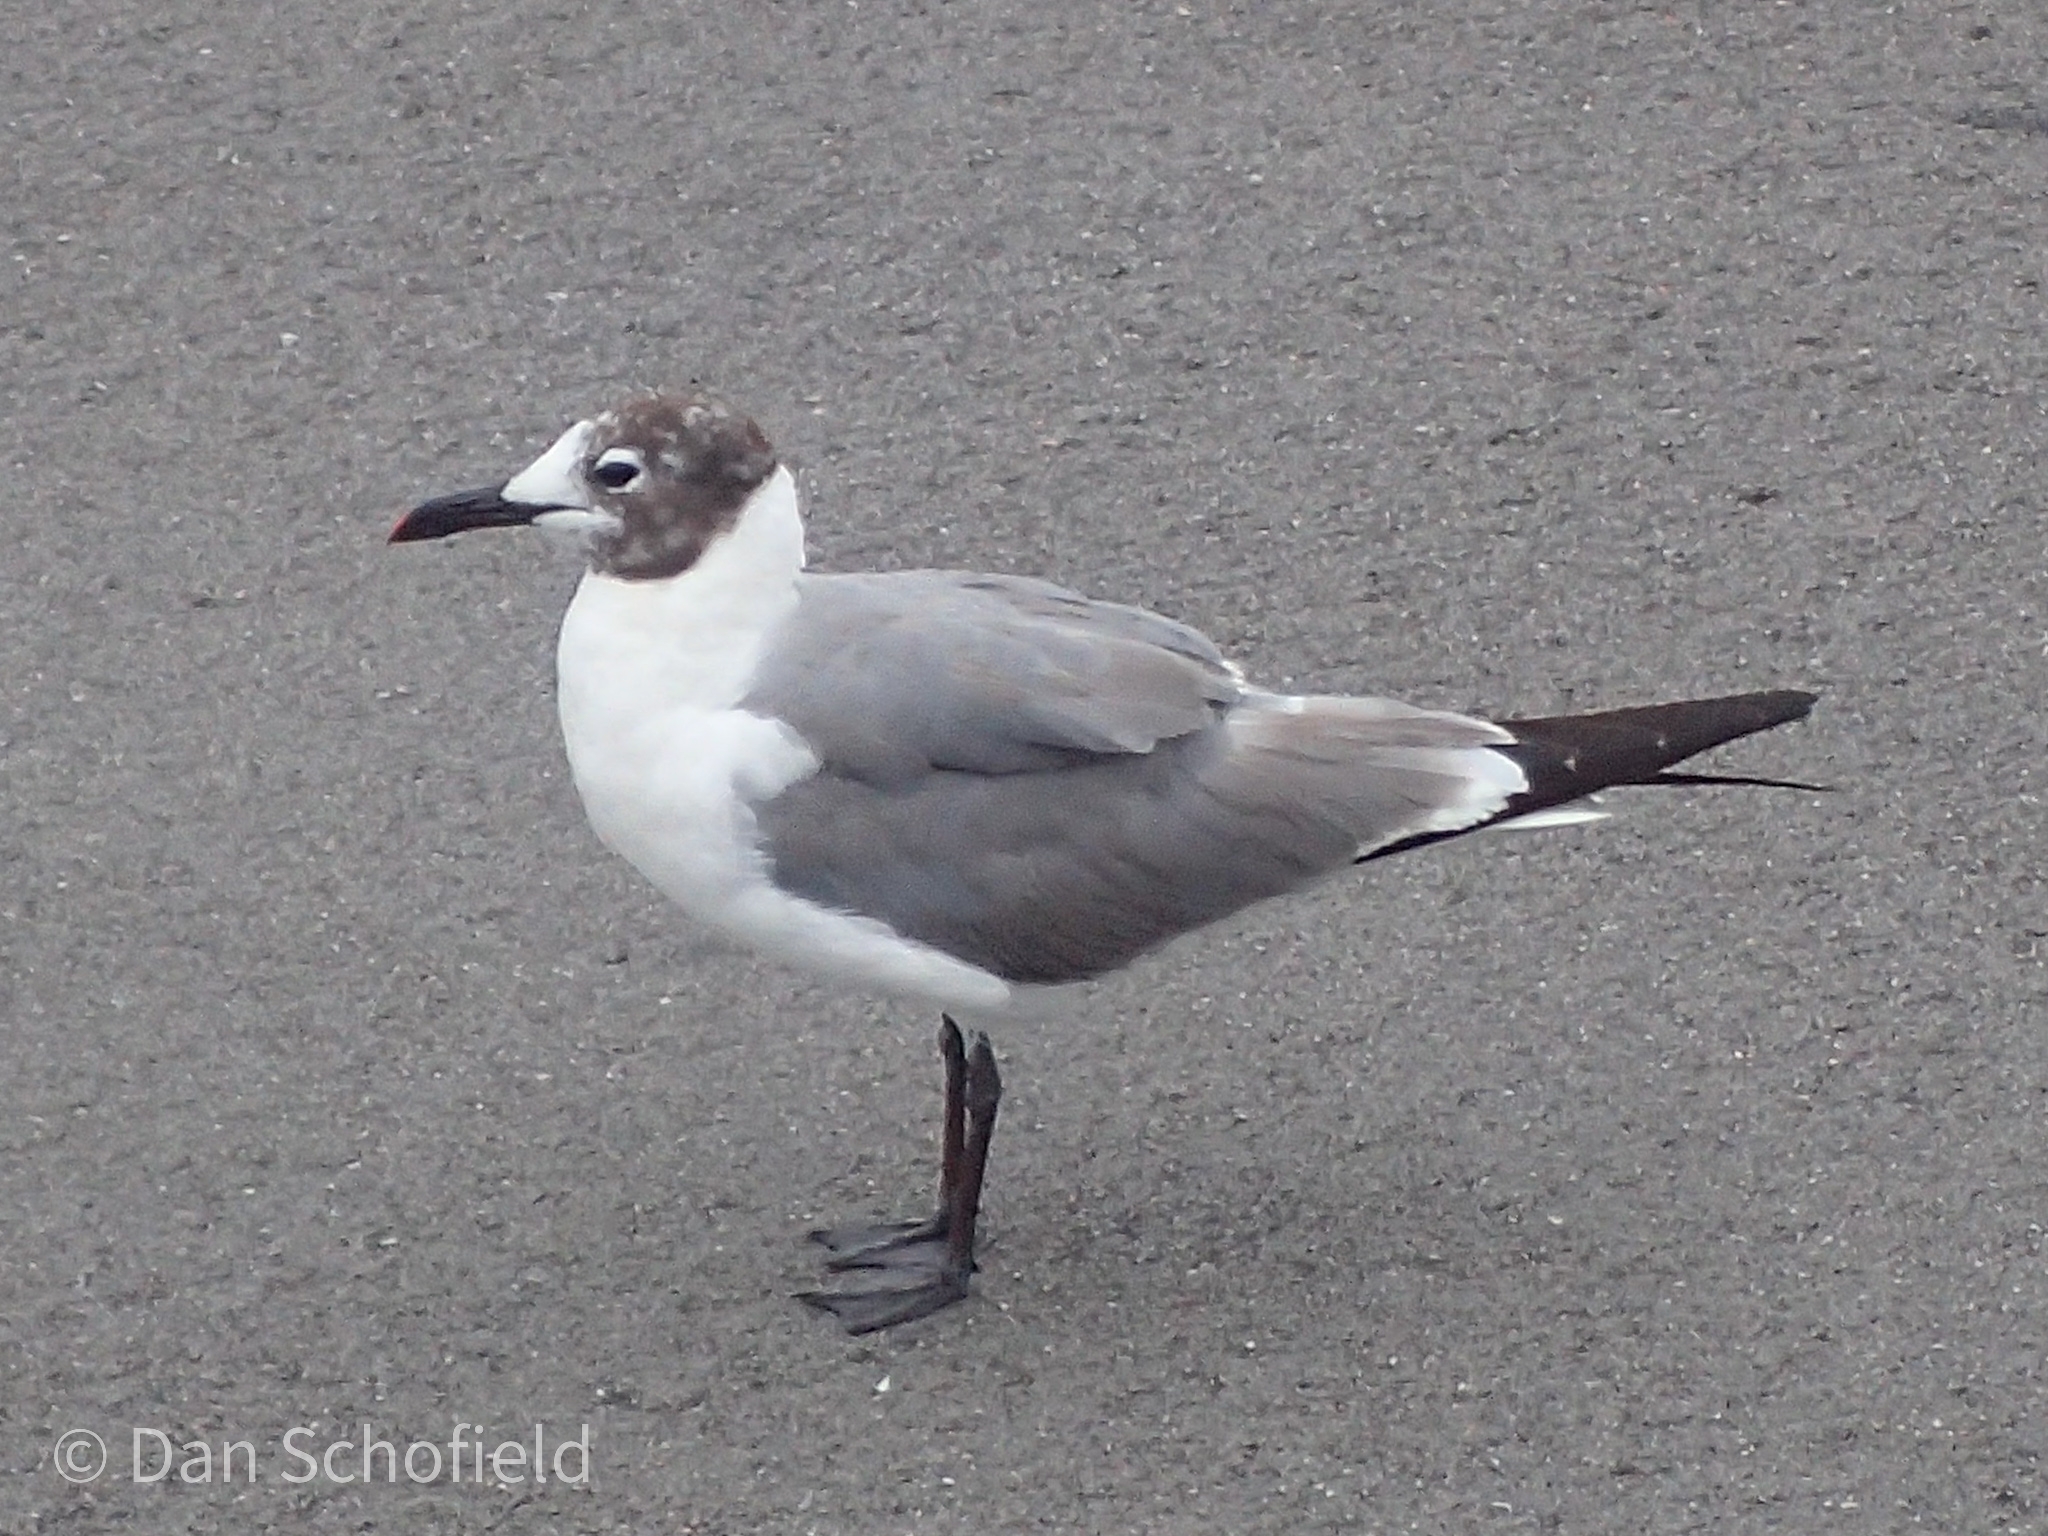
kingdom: Animalia
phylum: Chordata
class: Aves
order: Charadriiformes
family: Laridae
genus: Leucophaeus
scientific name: Leucophaeus atricilla
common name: Laughing gull
